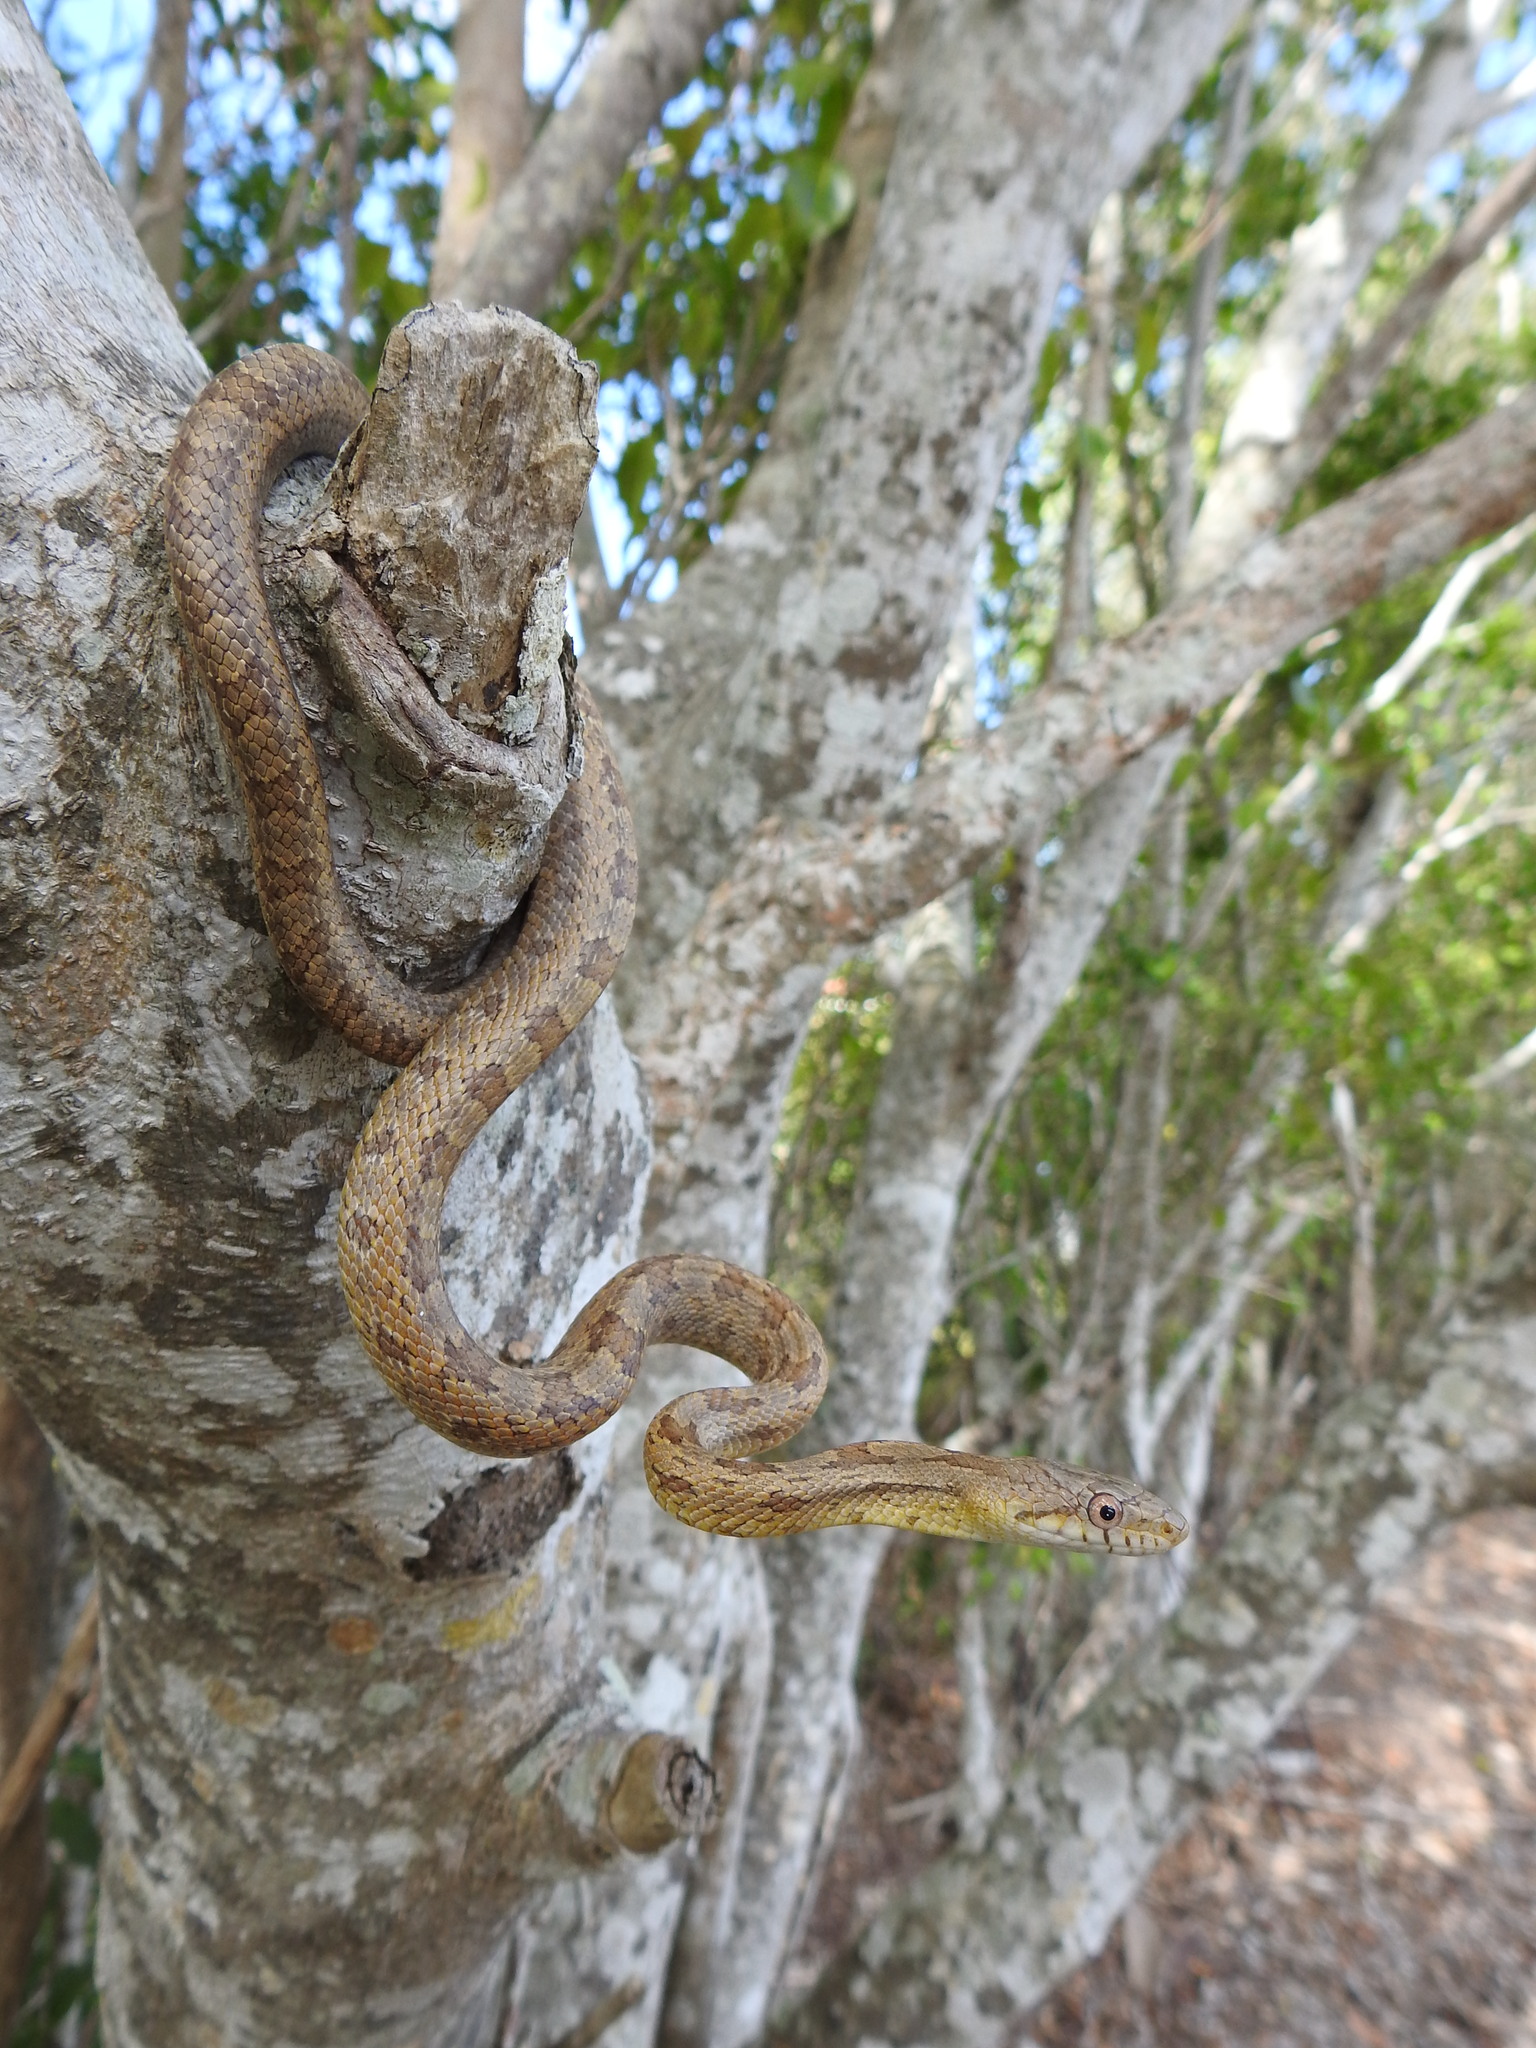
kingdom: Animalia
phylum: Chordata
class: Squamata
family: Colubridae
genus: Pantherophis
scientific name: Pantherophis alleghaniensis
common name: Eastern rat snake
